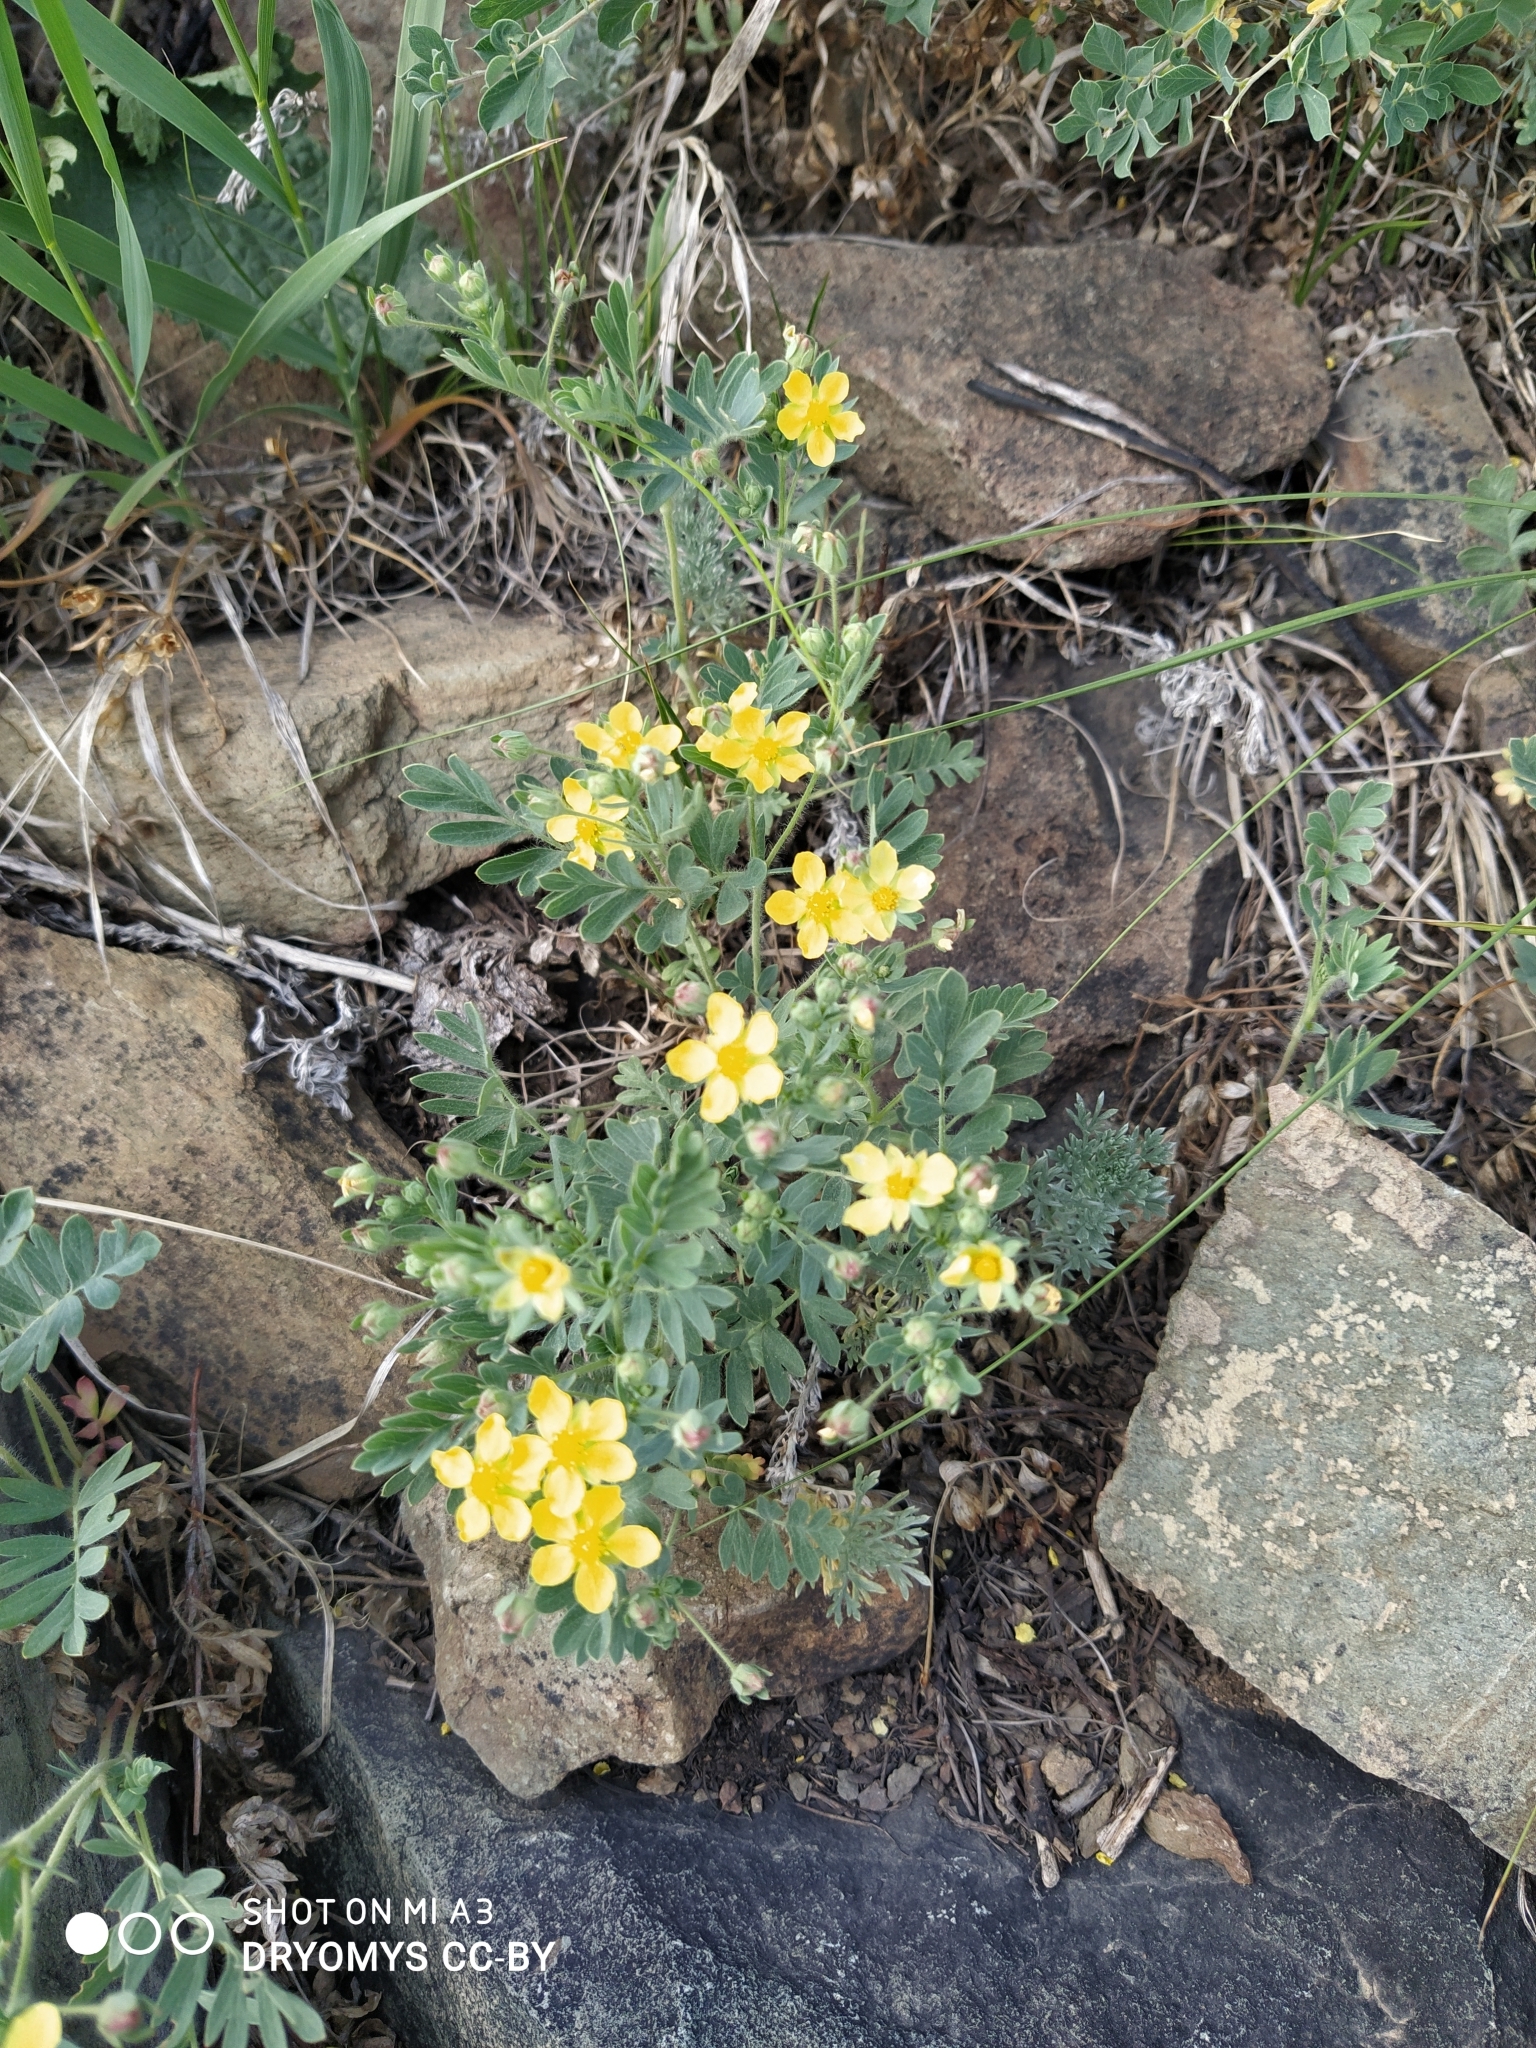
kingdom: Plantae
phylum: Tracheophyta
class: Magnoliopsida
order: Rosales
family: Rosaceae
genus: Sibbaldianthe
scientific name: Sibbaldianthe bifurca
